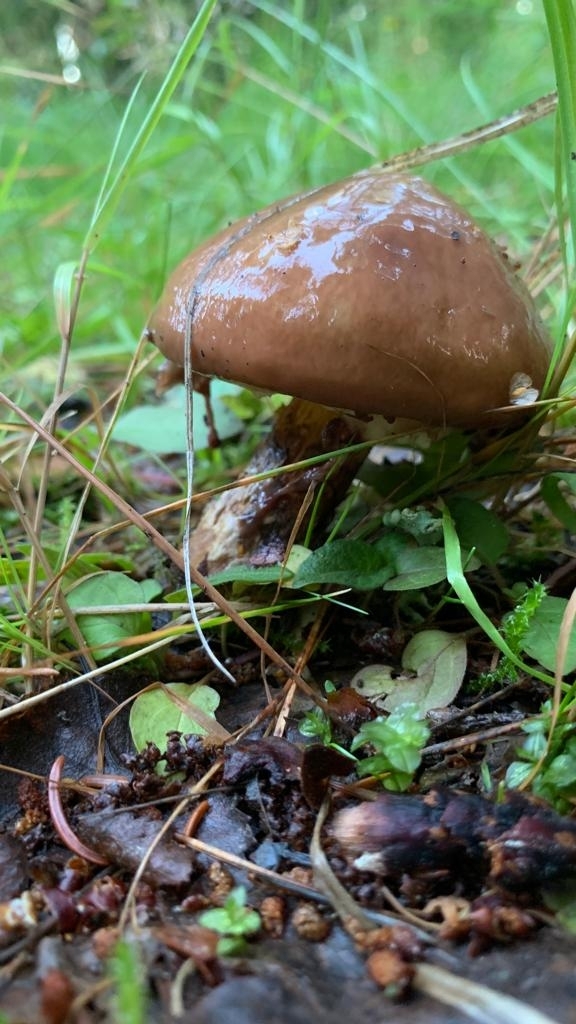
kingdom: Fungi
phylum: Basidiomycota
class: Agaricomycetes
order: Boletales
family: Suillaceae
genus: Suillus
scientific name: Suillus luteus
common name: Slippery jack
